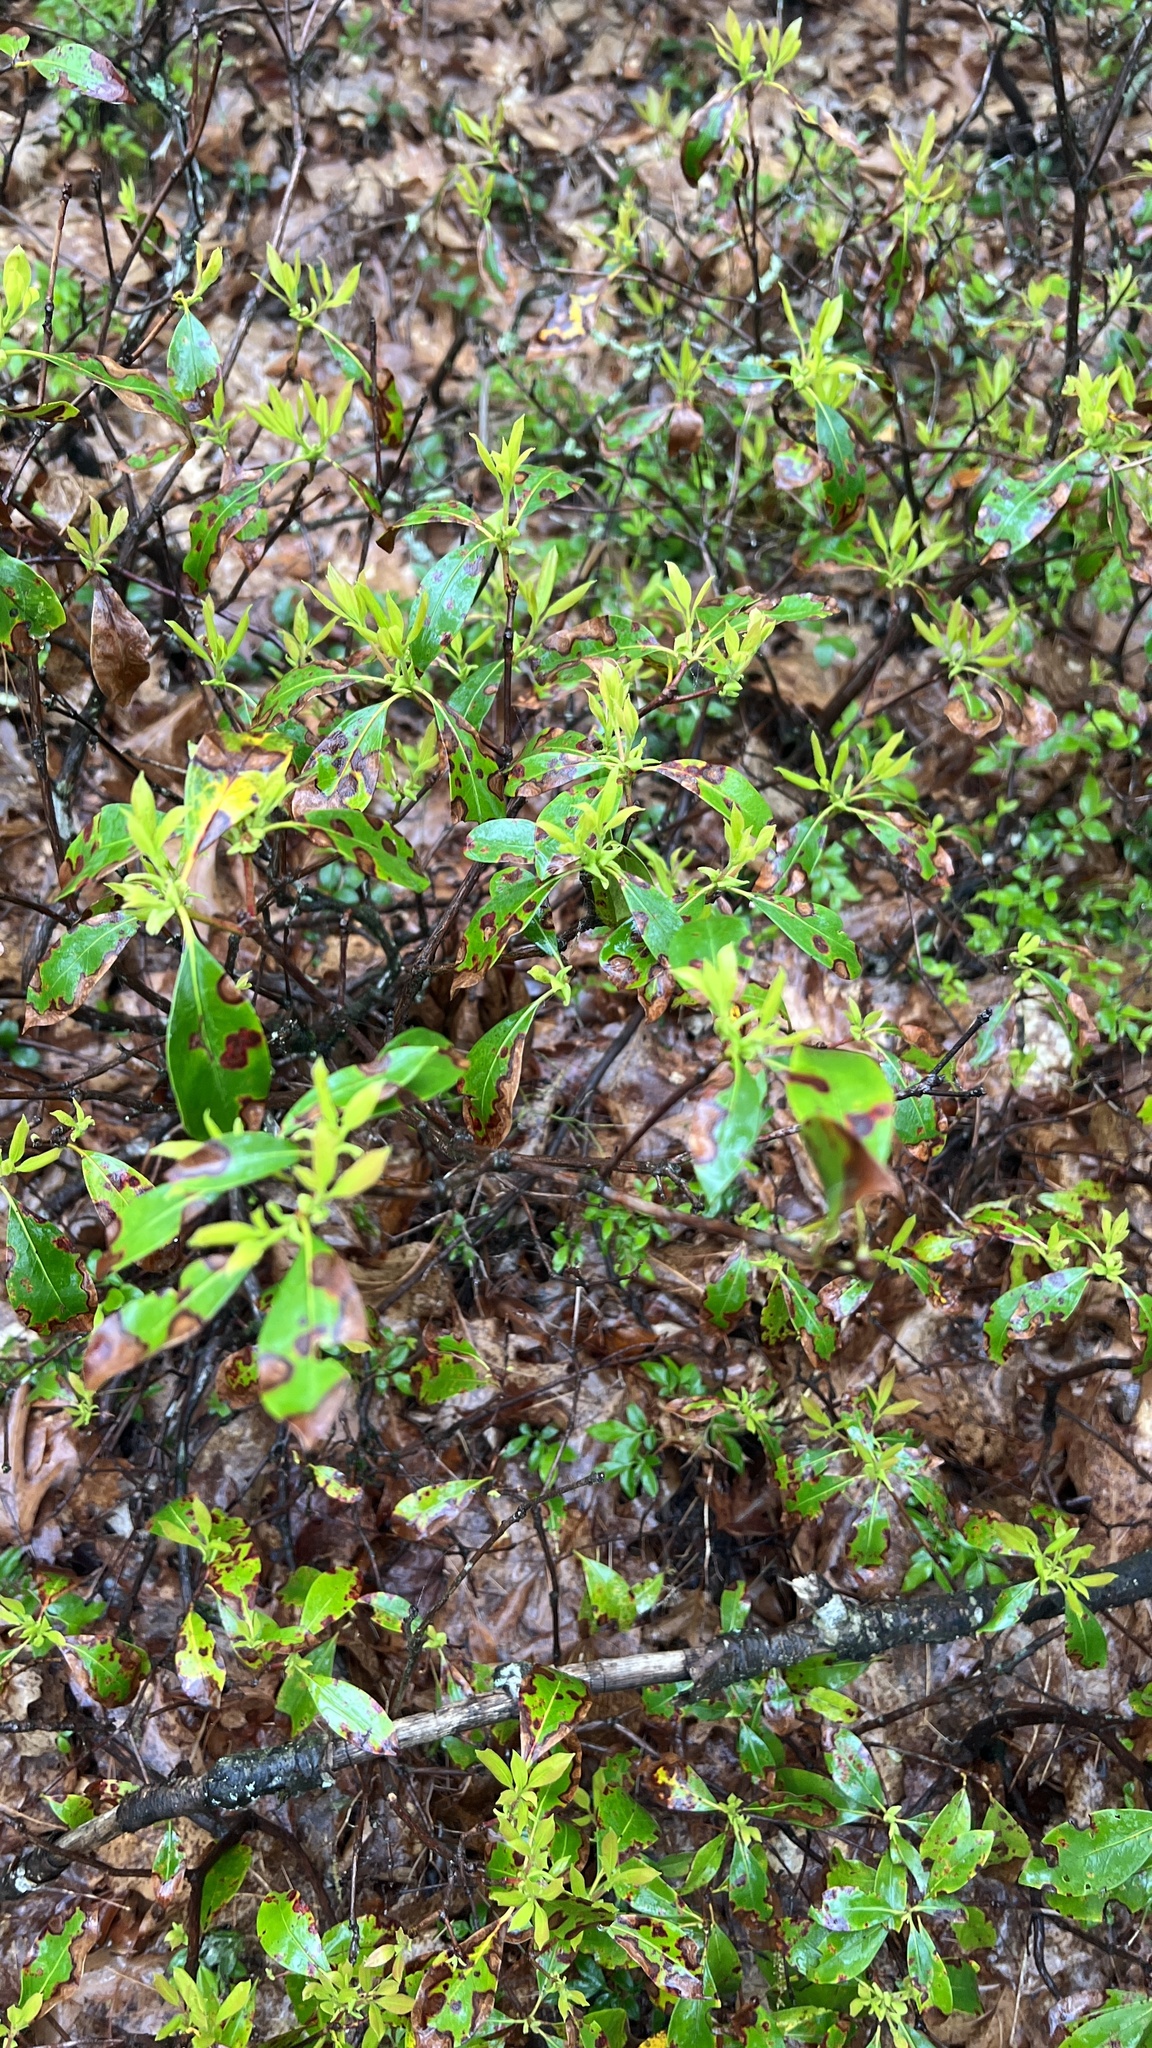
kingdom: Plantae
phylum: Tracheophyta
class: Magnoliopsida
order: Ericales
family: Ericaceae
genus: Kalmia
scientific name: Kalmia latifolia
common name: Mountain-laurel
